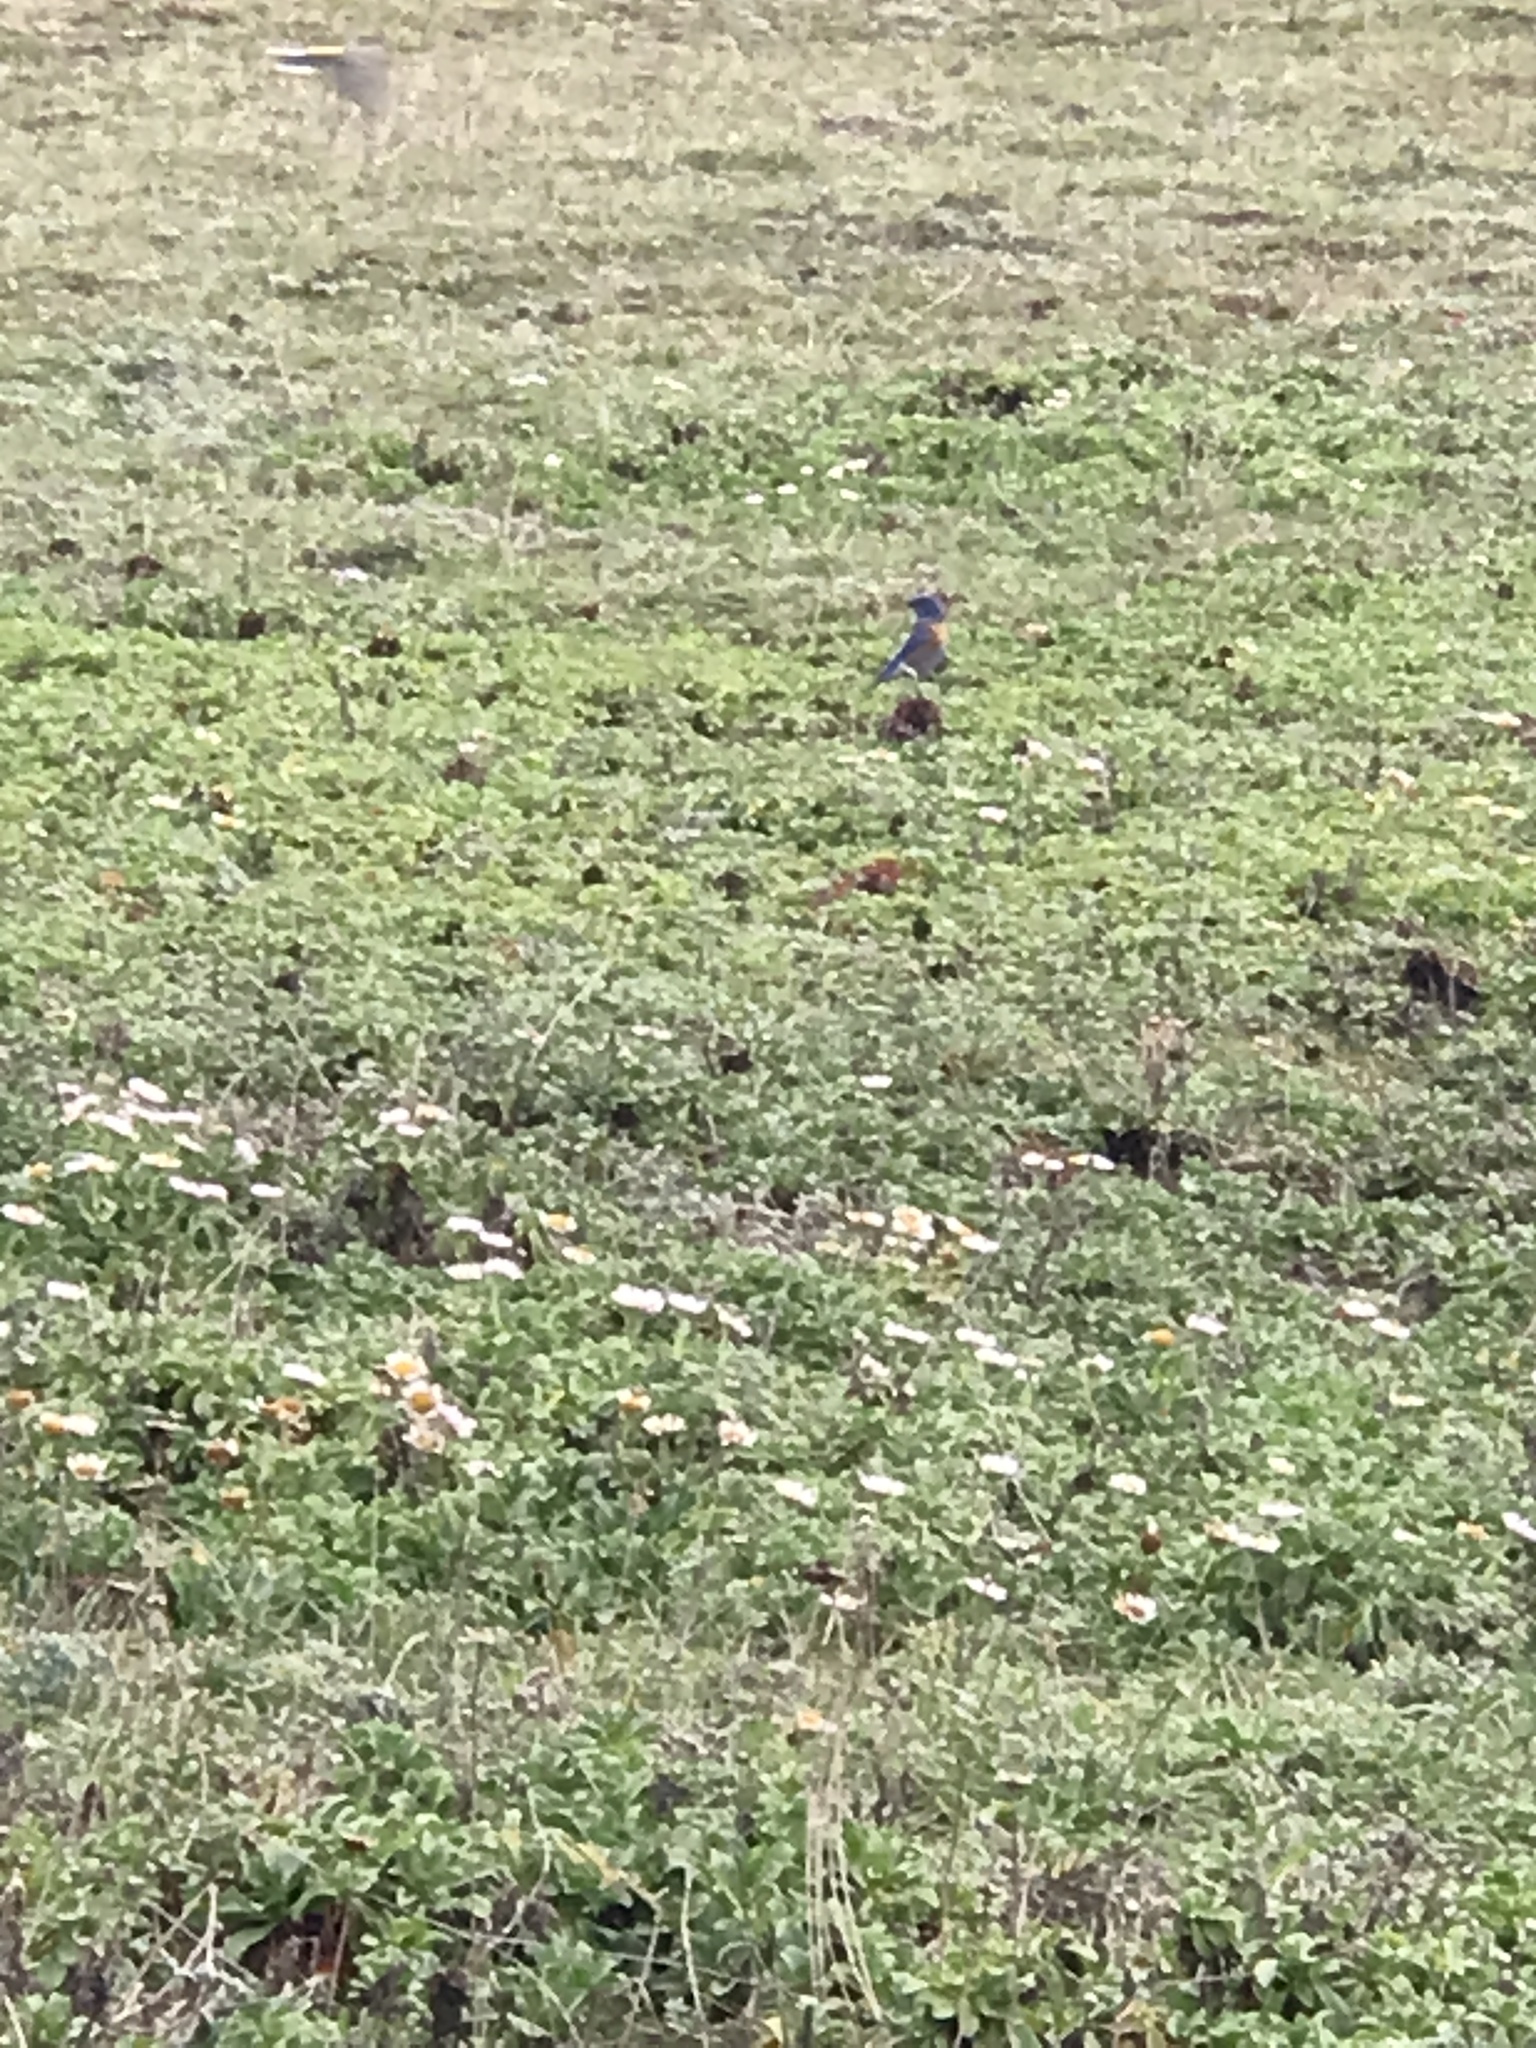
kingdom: Animalia
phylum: Chordata
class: Aves
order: Passeriformes
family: Turdidae
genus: Sialia
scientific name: Sialia mexicana
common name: Western bluebird
